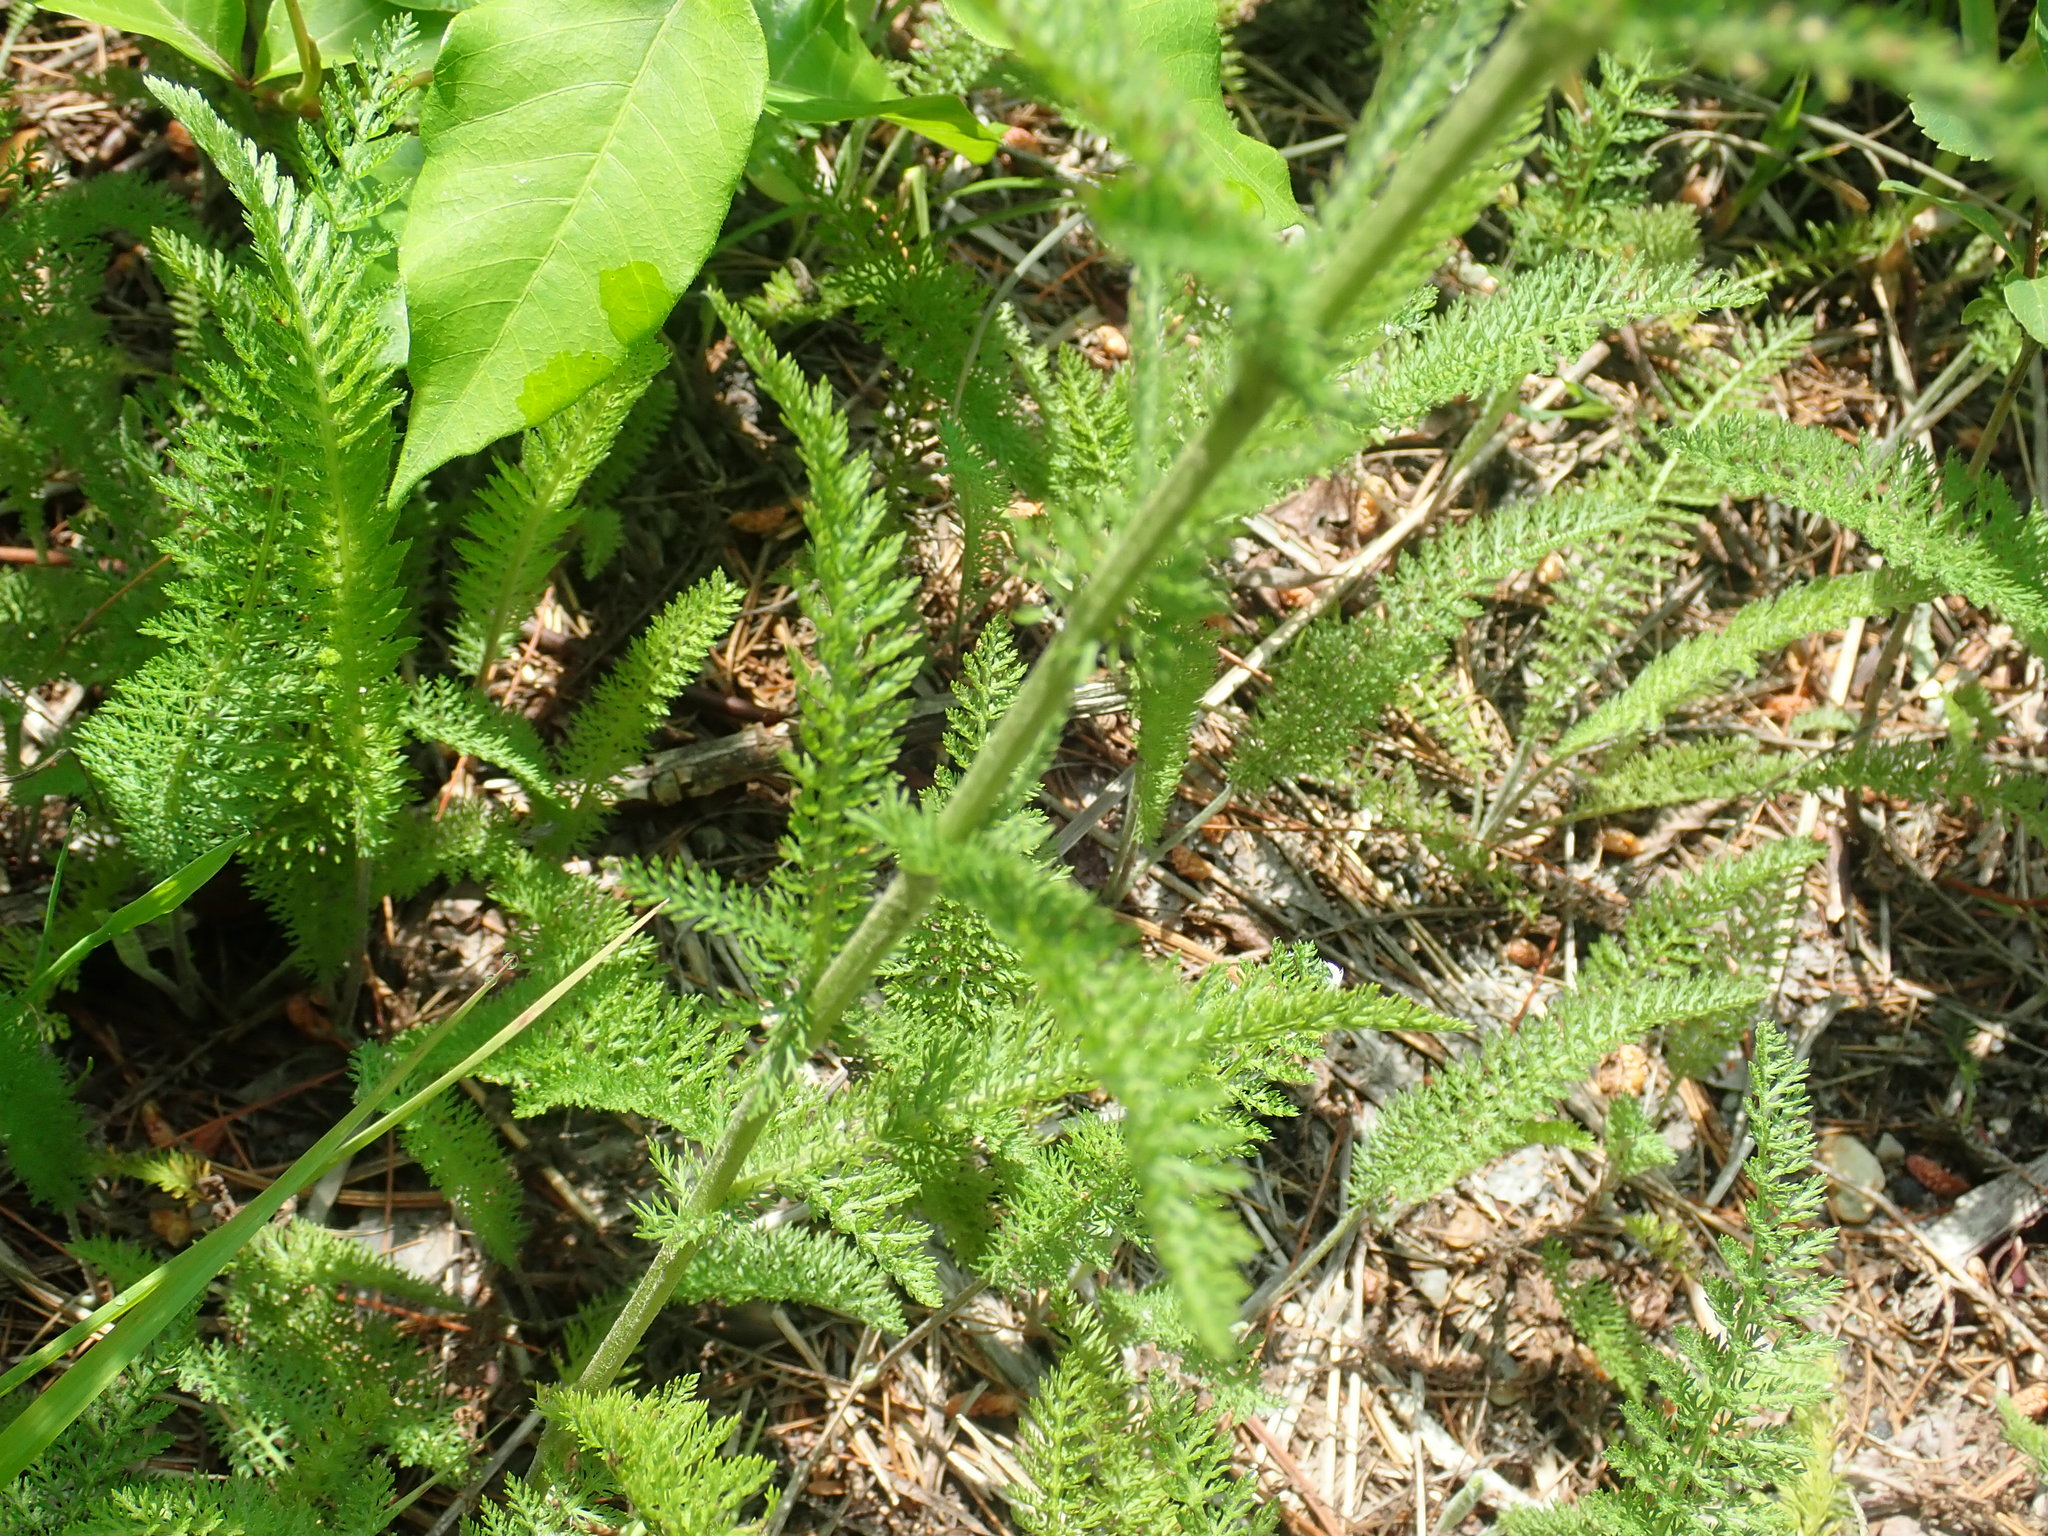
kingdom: Plantae
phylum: Tracheophyta
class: Magnoliopsida
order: Asterales
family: Asteraceae
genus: Achillea
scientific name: Achillea millefolium
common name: Yarrow
